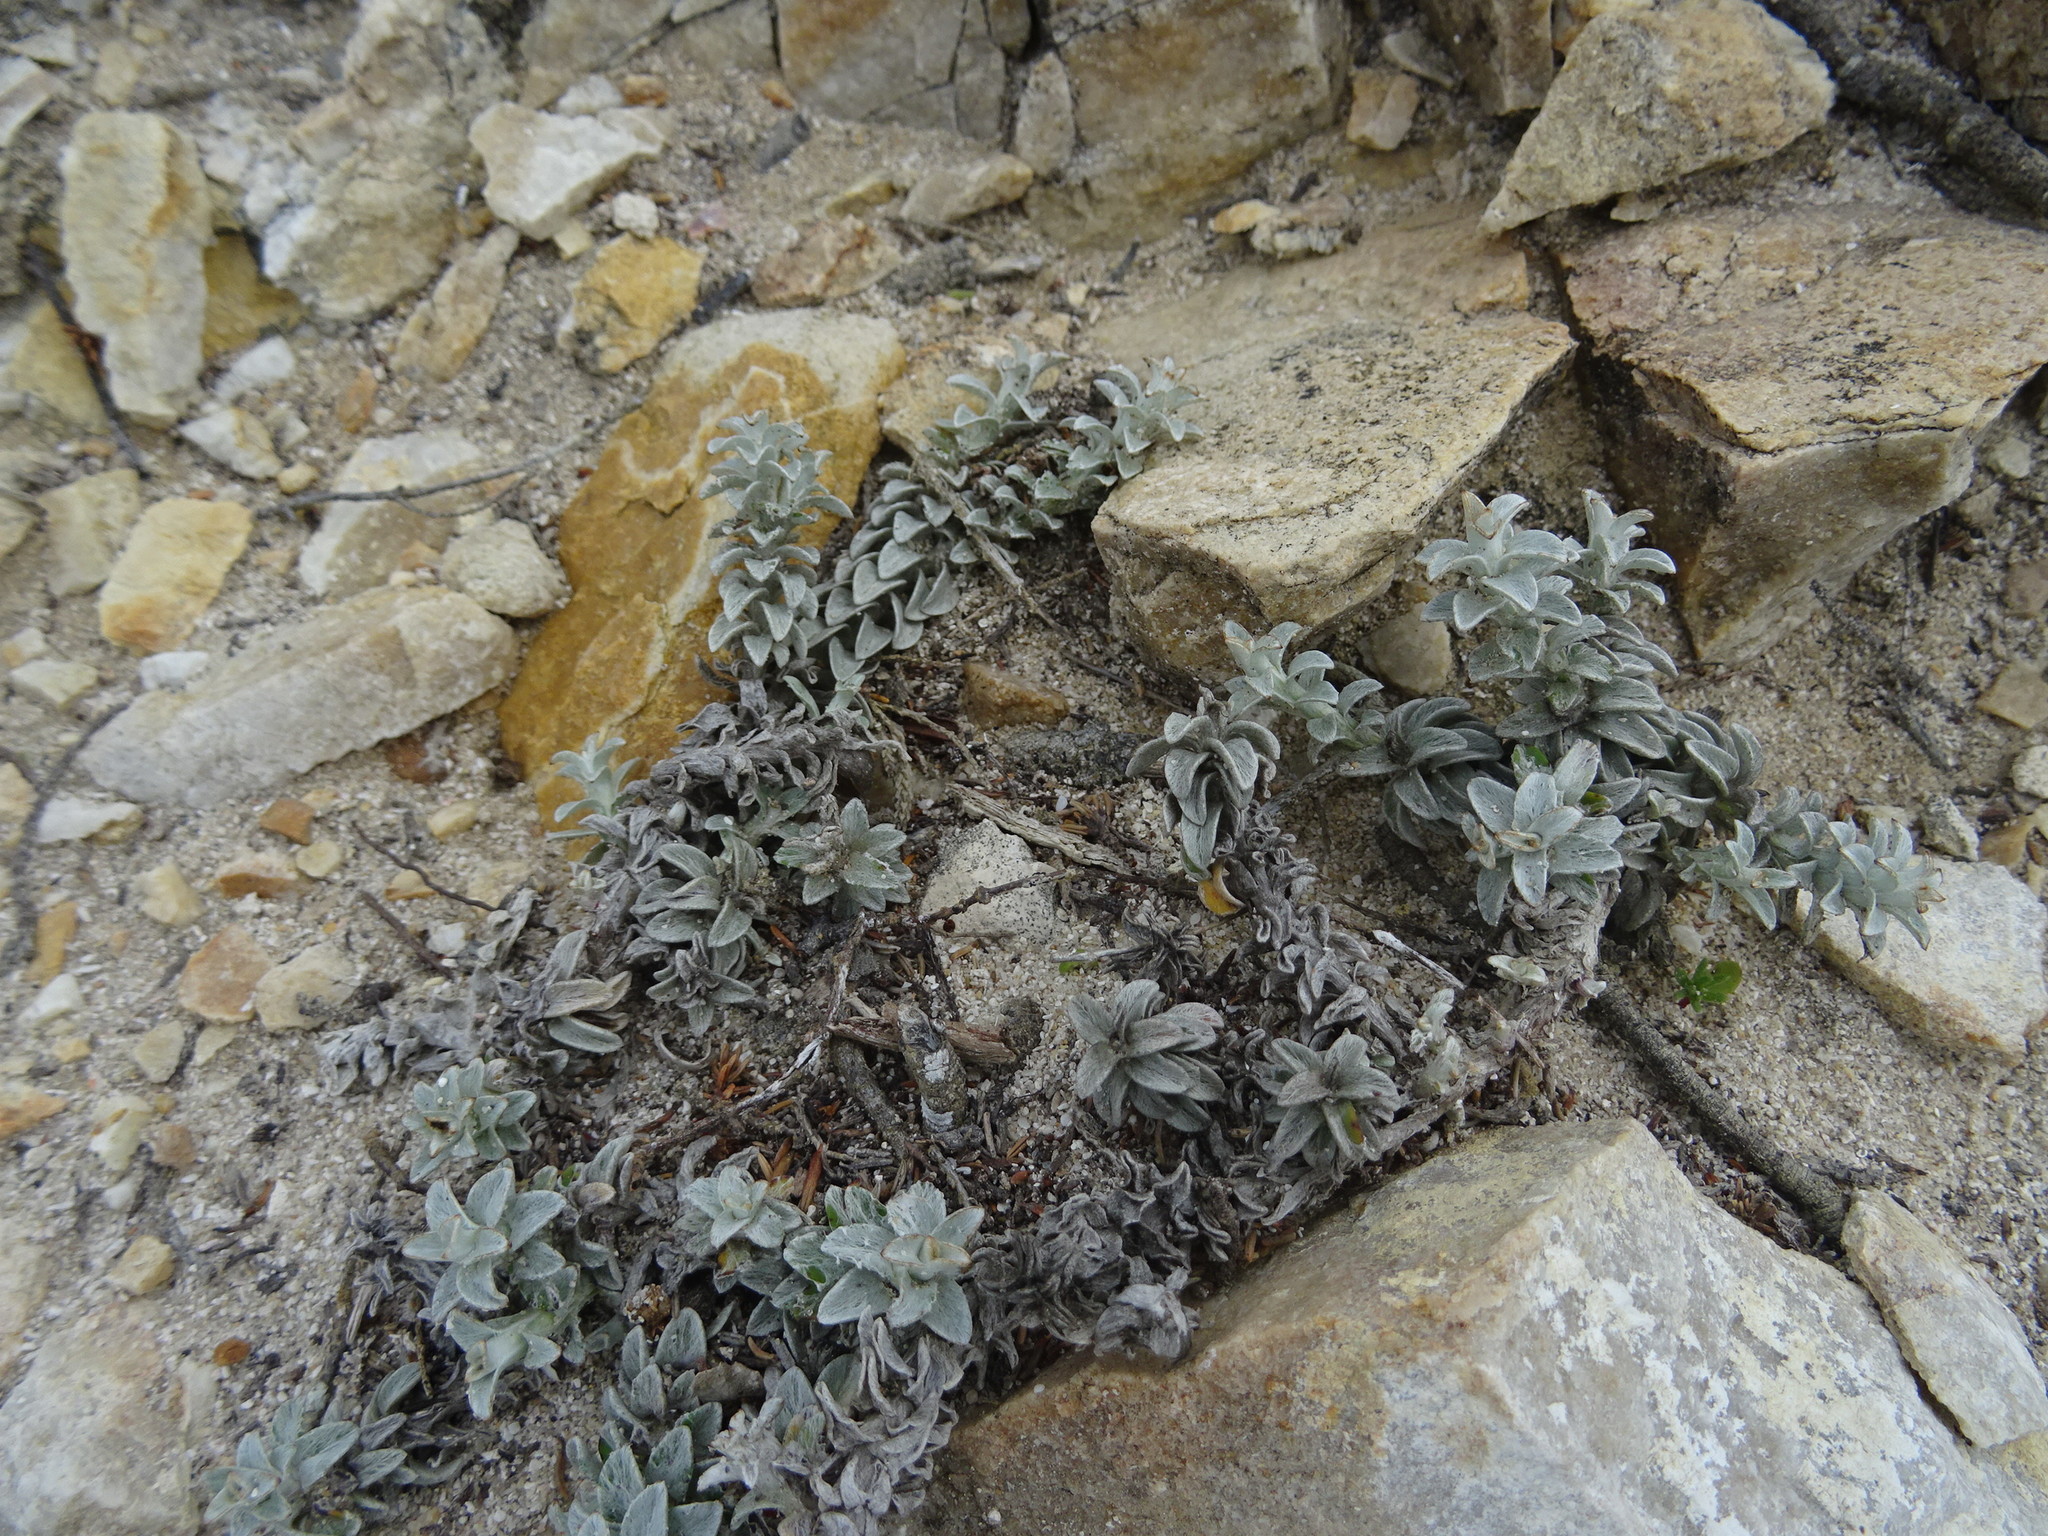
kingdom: Plantae
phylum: Tracheophyta
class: Magnoliopsida
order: Asterales
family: Asteraceae
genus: Helichrysum
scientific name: Helichrysum retortum
